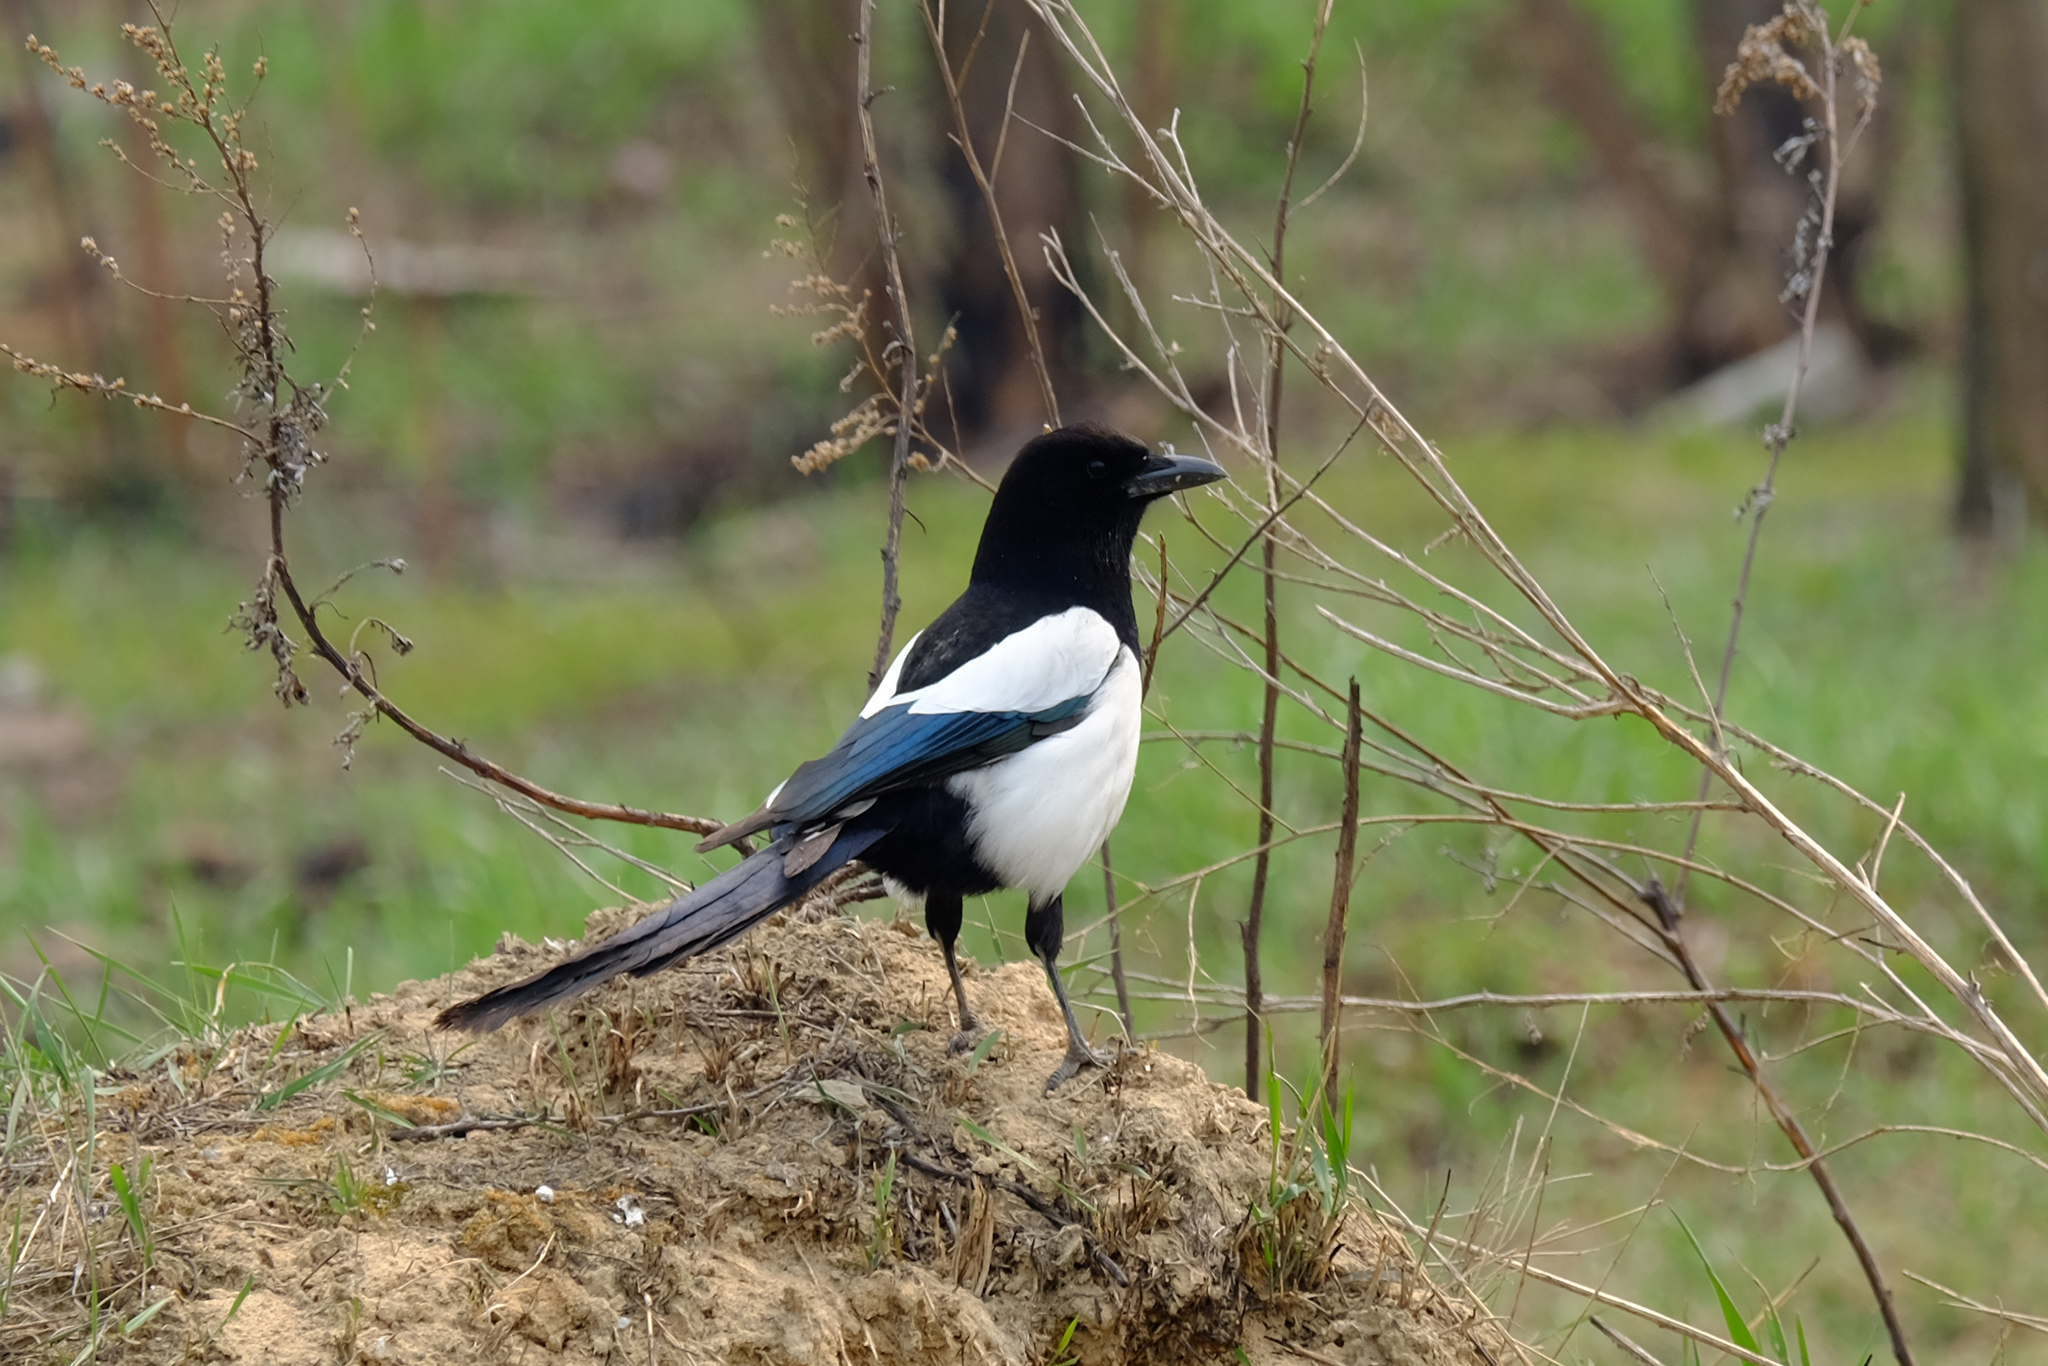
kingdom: Animalia
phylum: Chordata
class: Aves
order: Passeriformes
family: Corvidae
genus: Pica
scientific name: Pica pica
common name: Eurasian magpie
